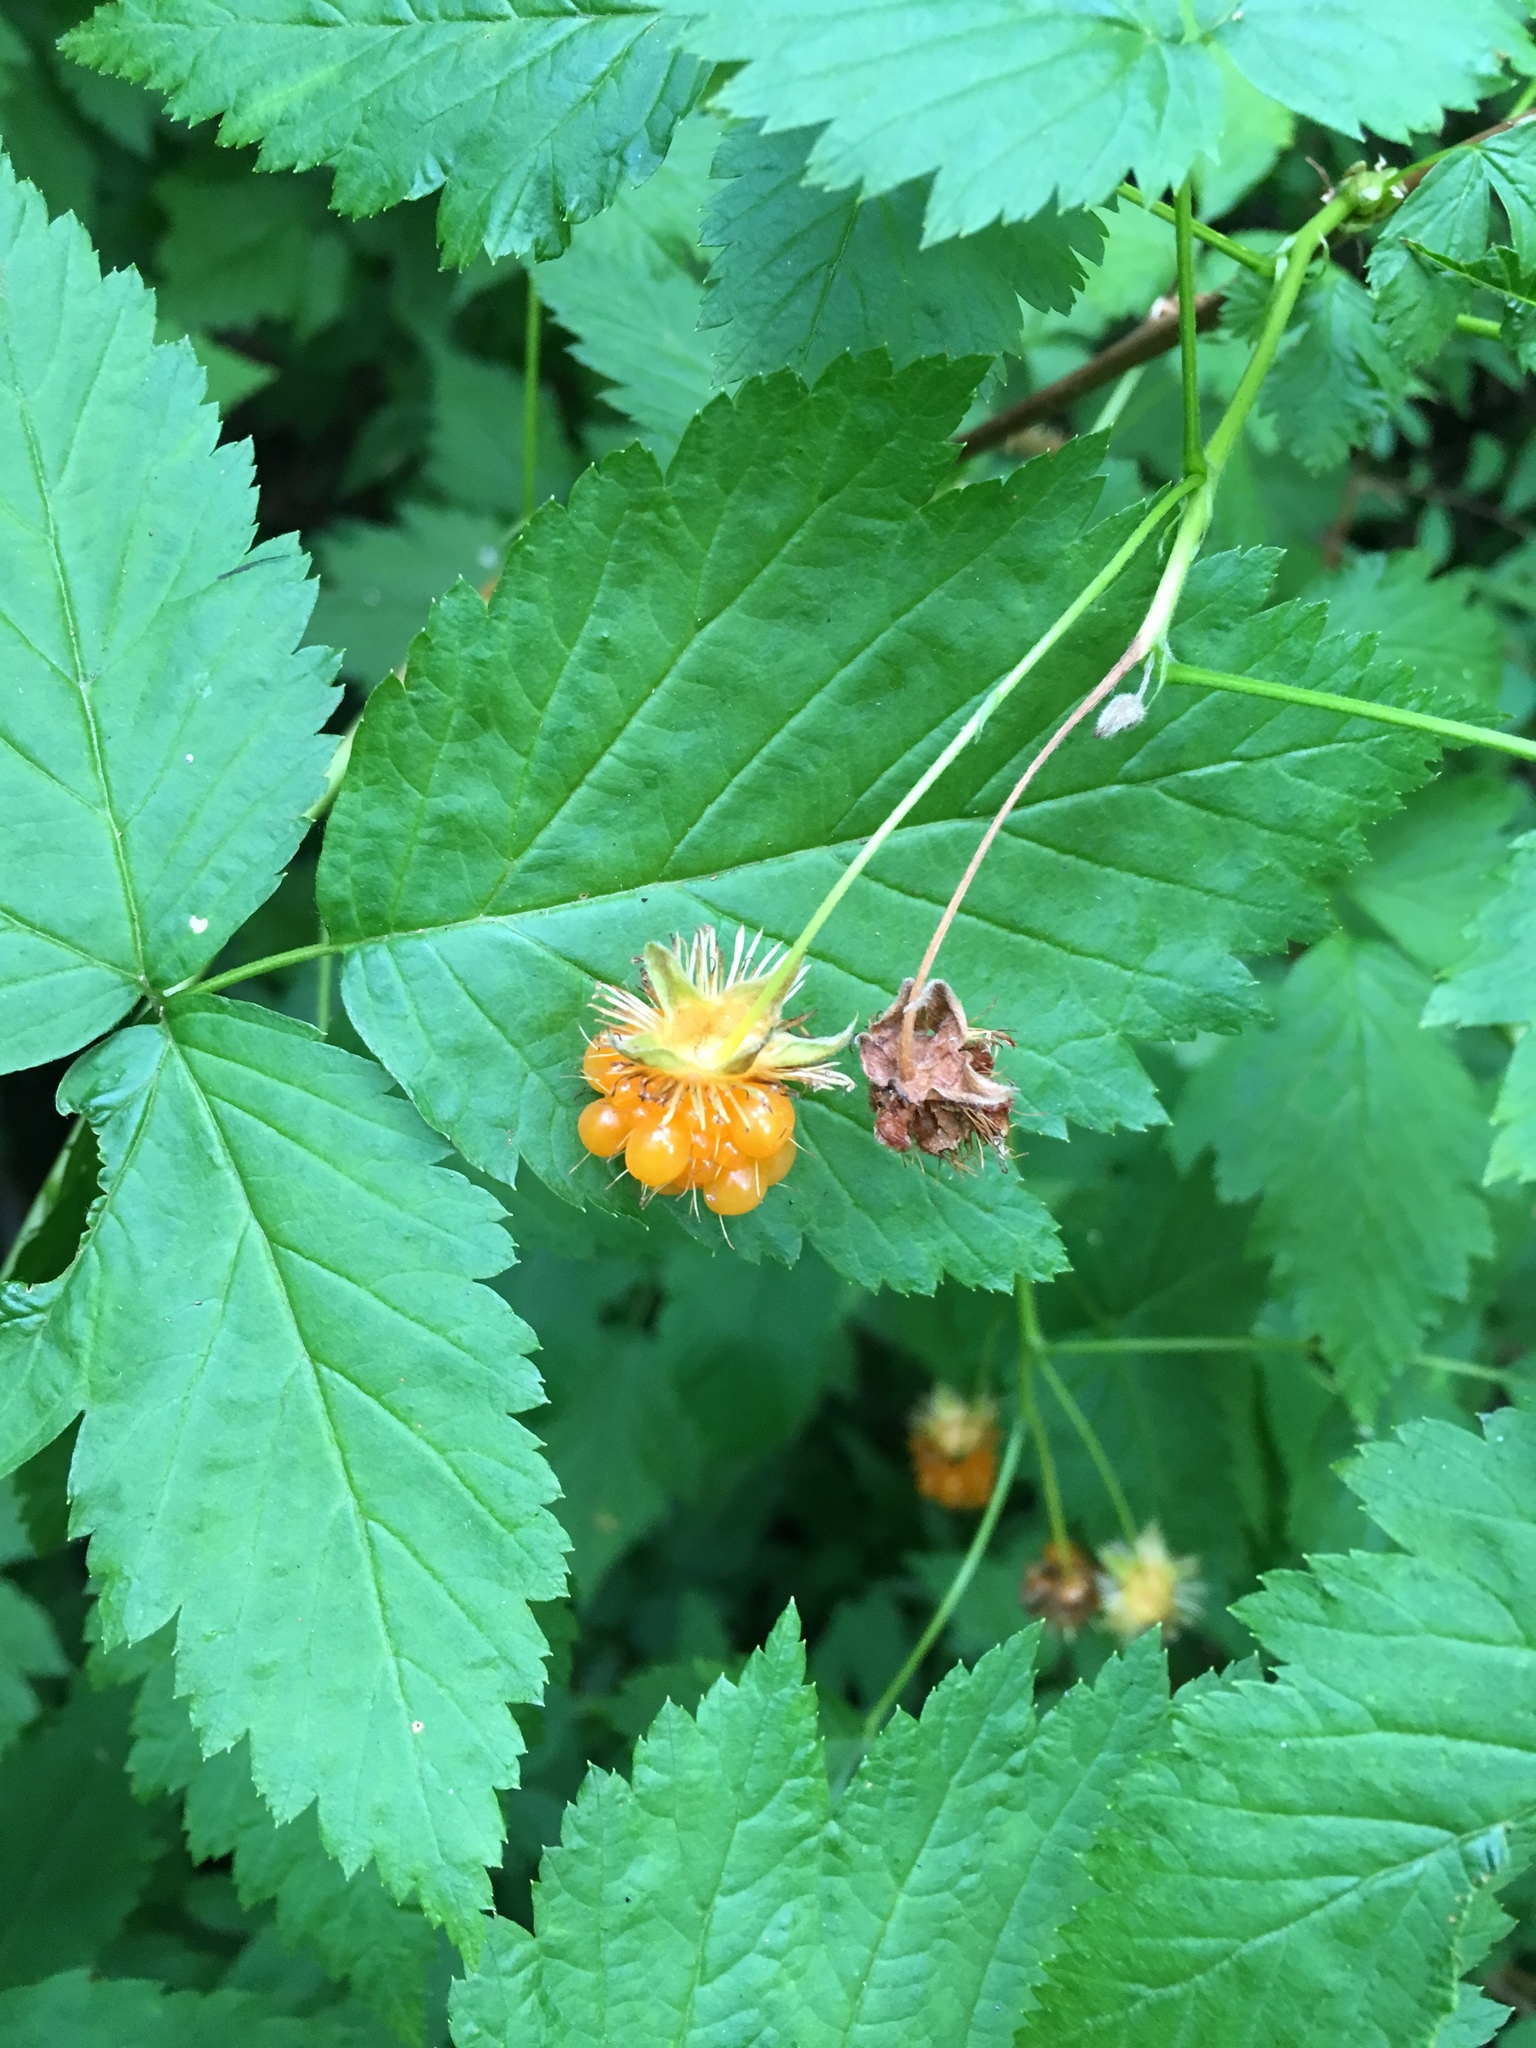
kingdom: Plantae
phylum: Tracheophyta
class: Magnoliopsida
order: Rosales
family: Rosaceae
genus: Rubus
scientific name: Rubus spectabilis
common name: Salmonberry
